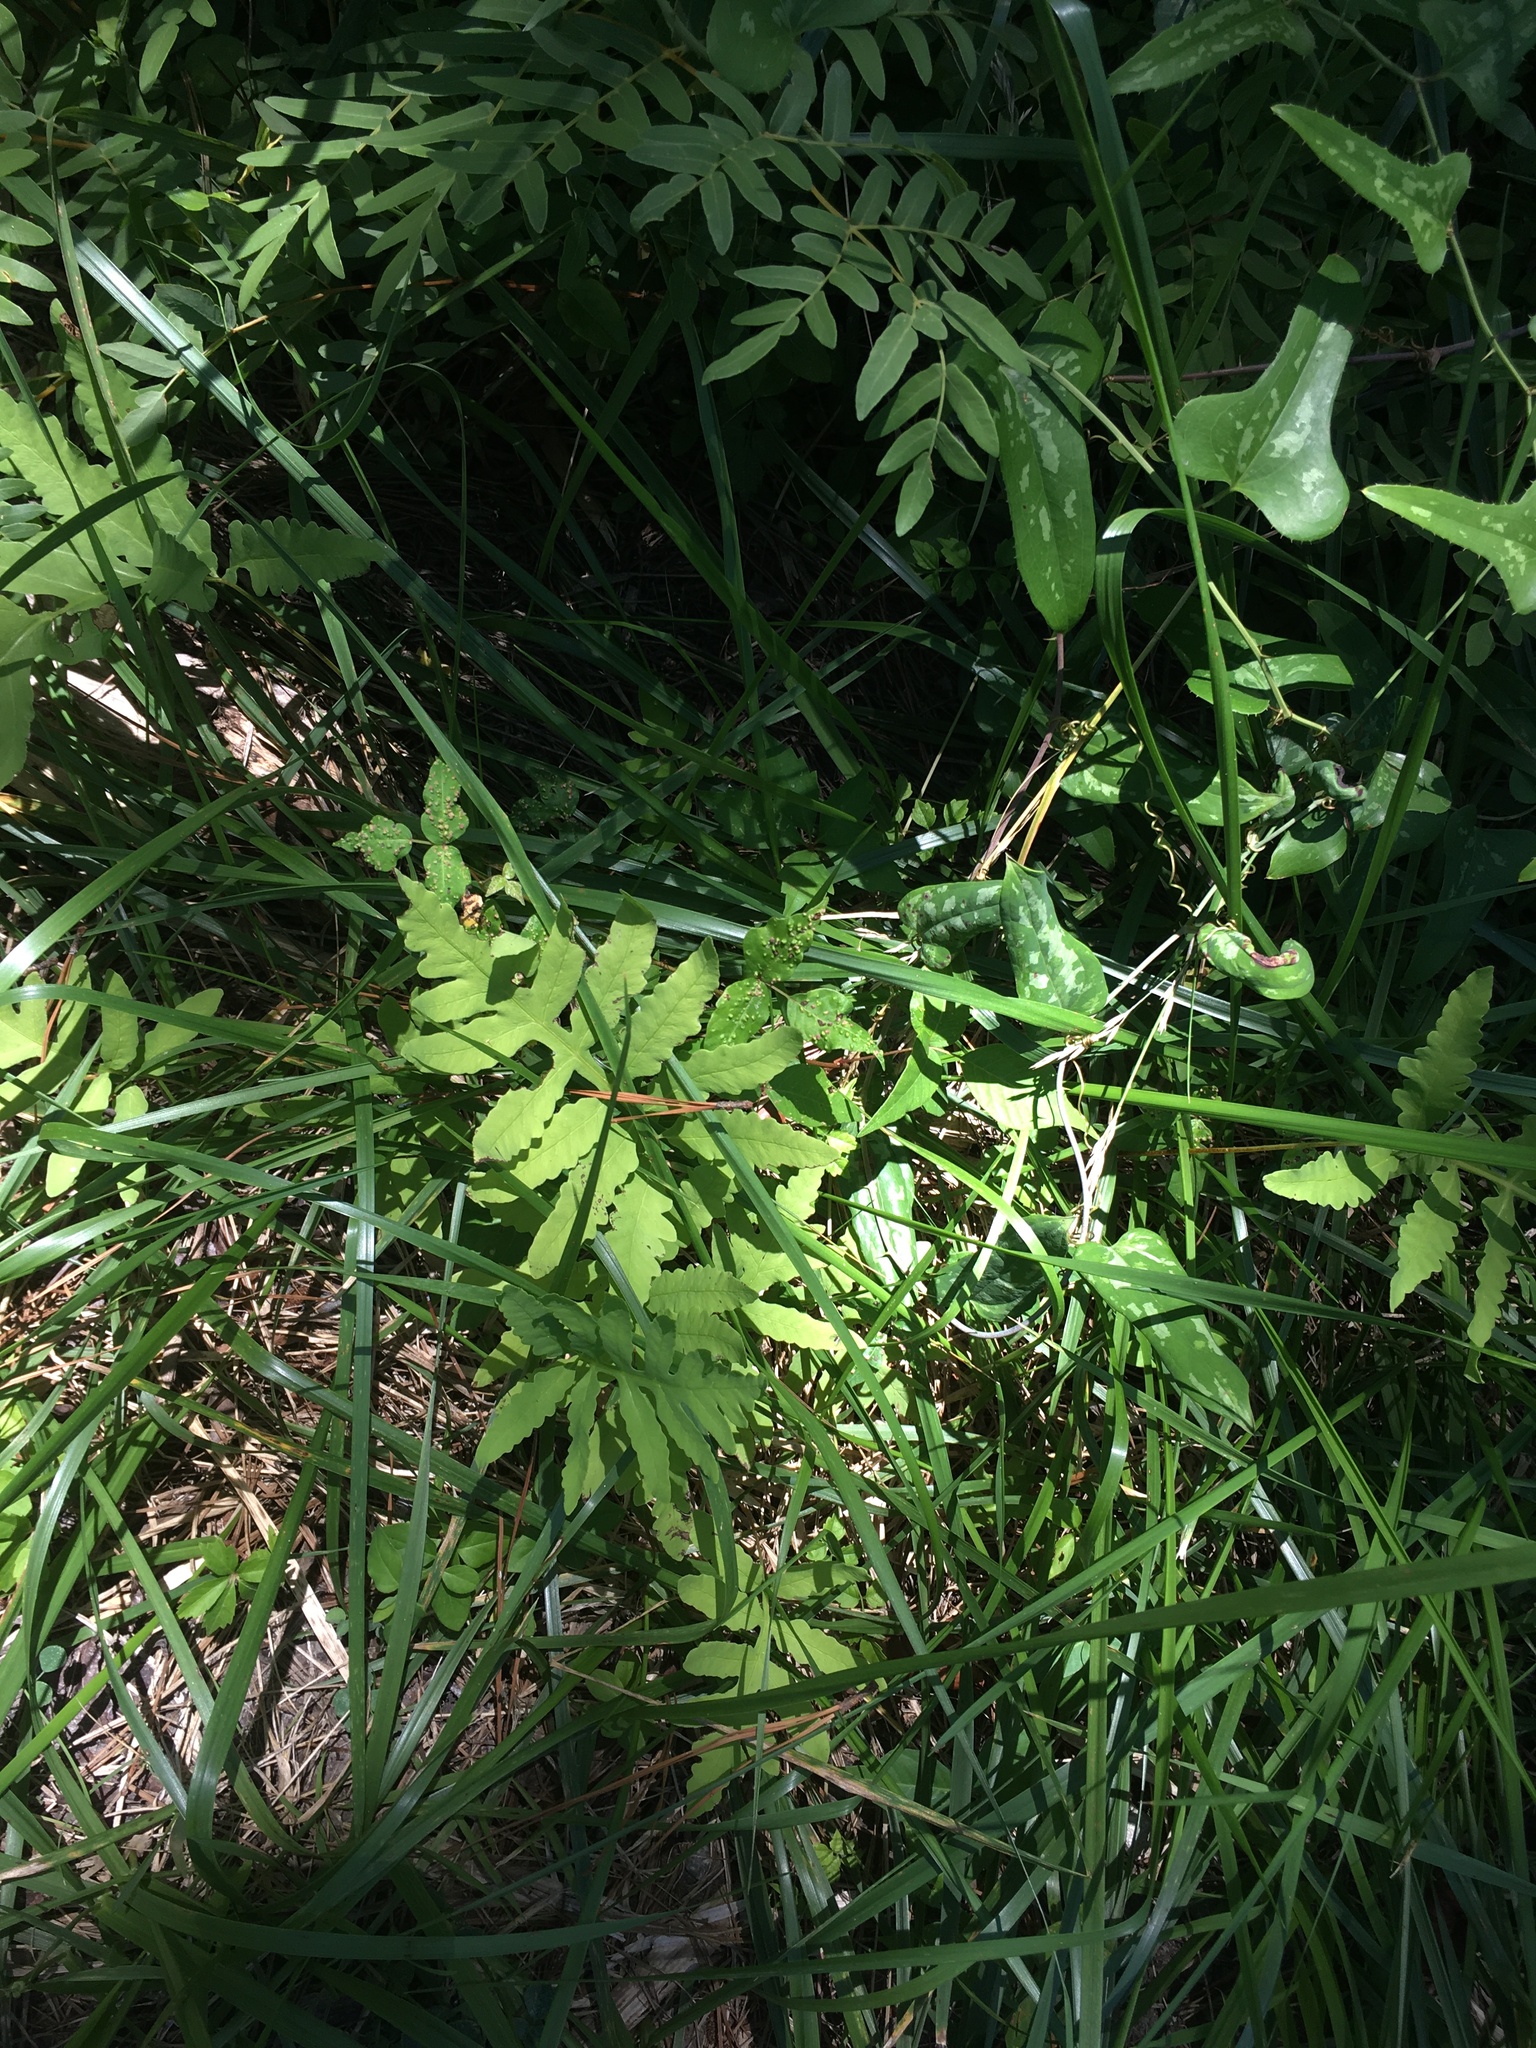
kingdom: Plantae
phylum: Tracheophyta
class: Polypodiopsida
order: Polypodiales
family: Onocleaceae
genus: Onoclea
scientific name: Onoclea sensibilis
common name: Sensitive fern
